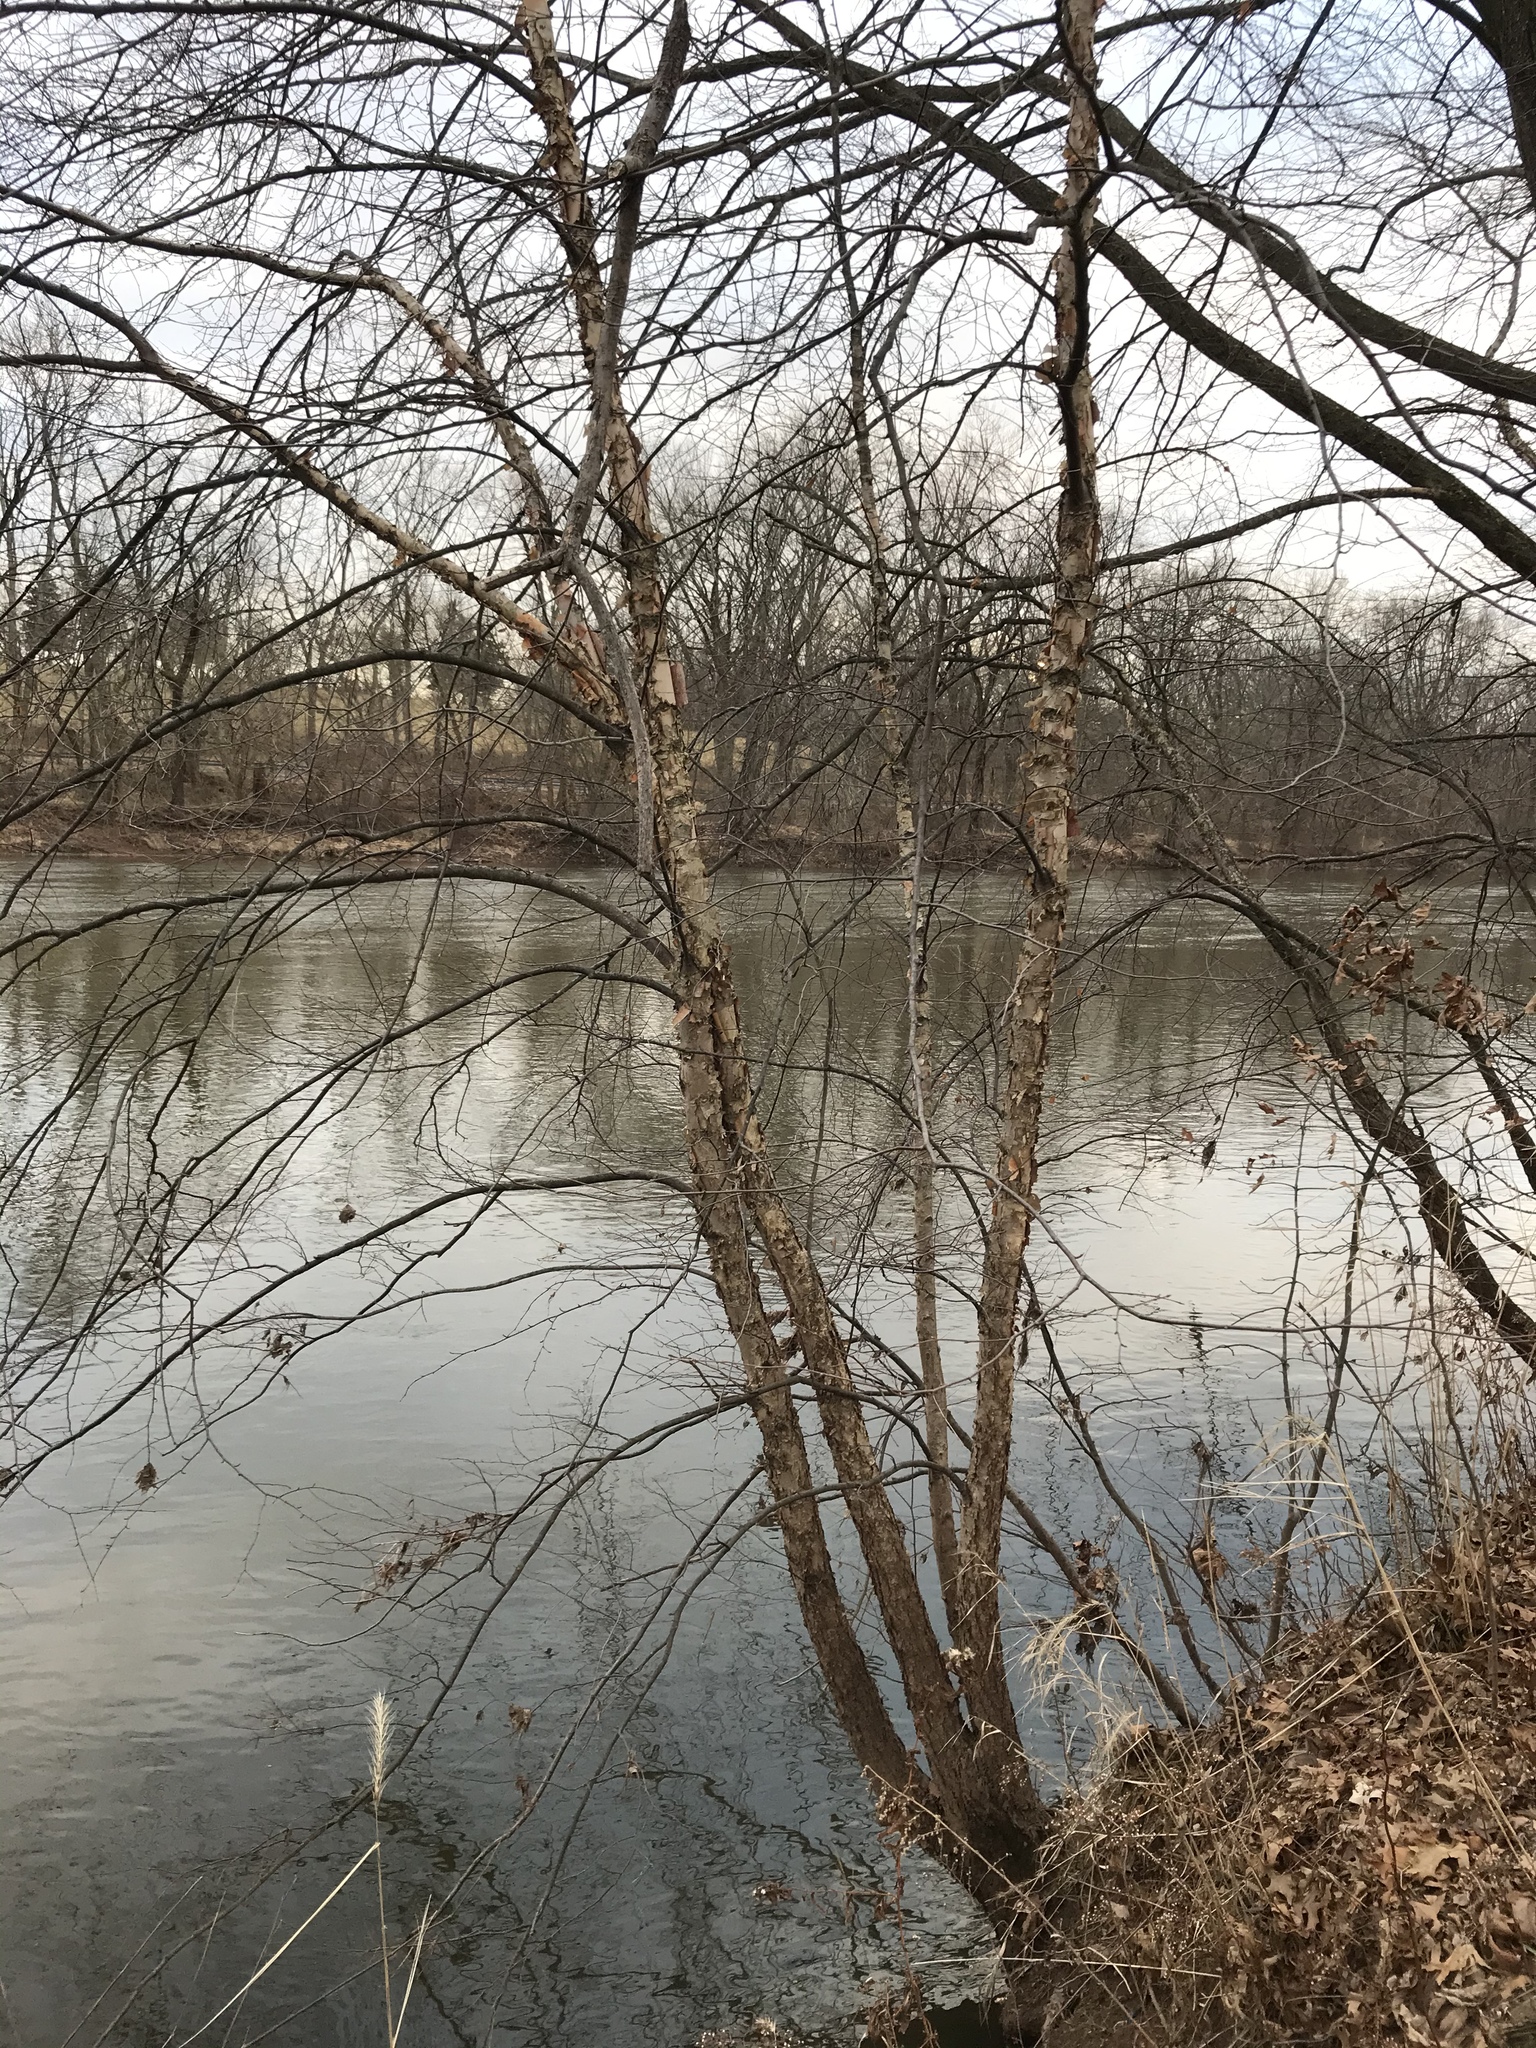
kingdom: Plantae
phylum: Tracheophyta
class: Magnoliopsida
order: Fagales
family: Betulaceae
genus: Betula
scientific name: Betula nigra
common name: Black birch
